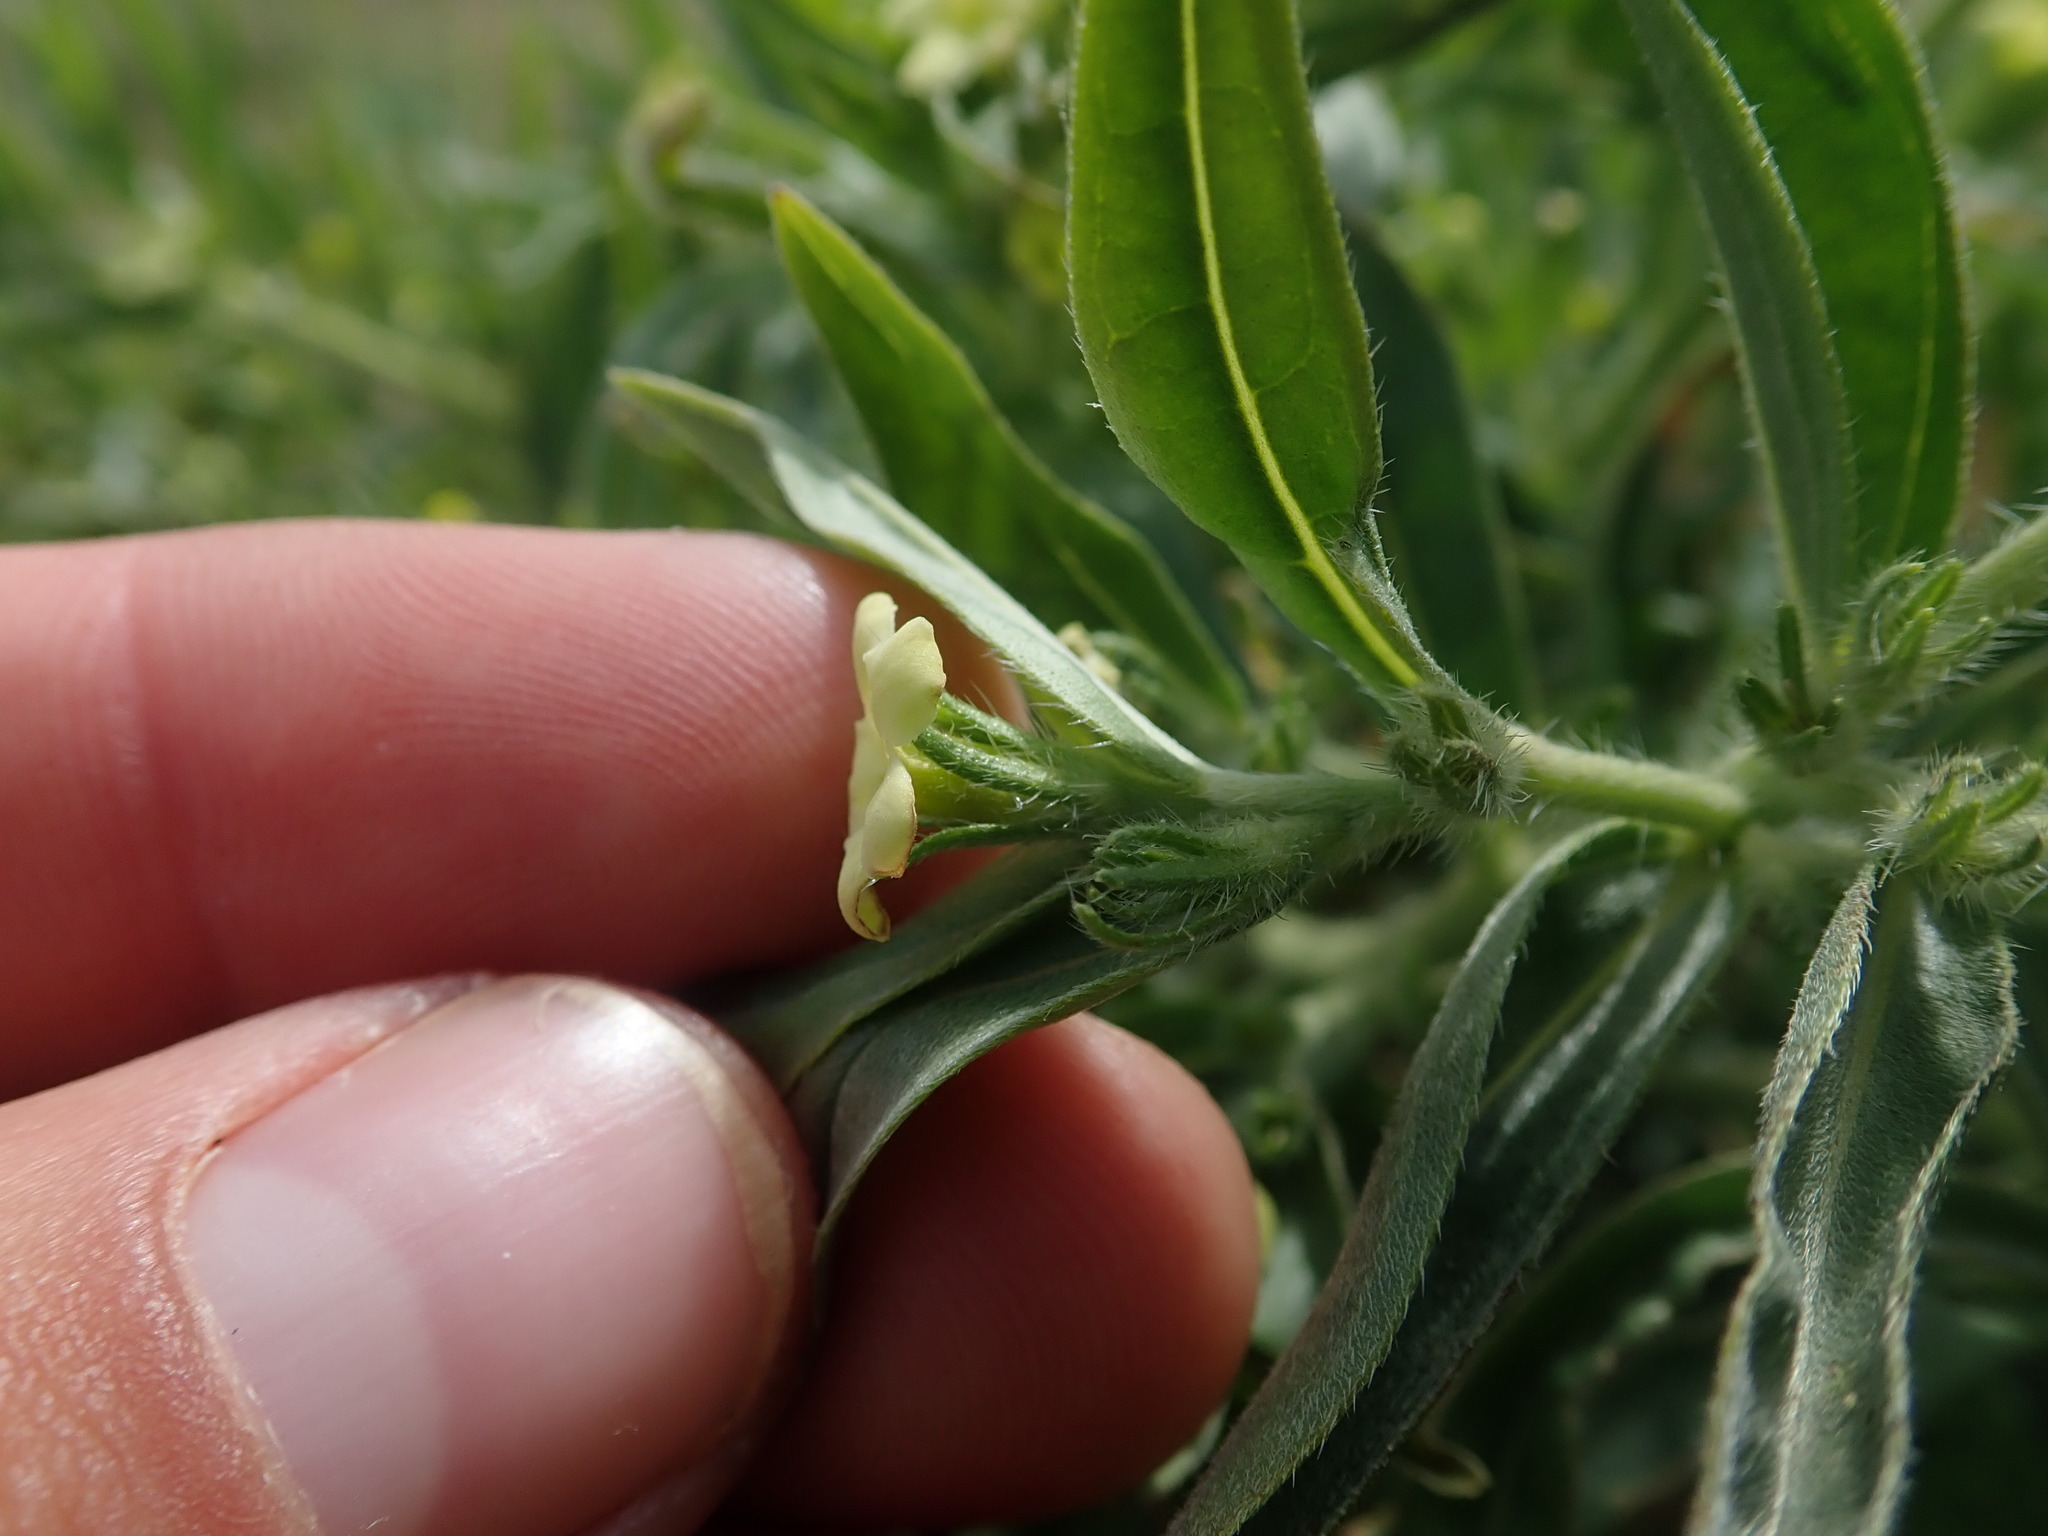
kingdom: Plantae
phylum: Tracheophyta
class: Magnoliopsida
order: Boraginales
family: Boraginaceae
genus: Lithospermum
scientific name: Lithospermum ruderale
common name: Western gromwell
